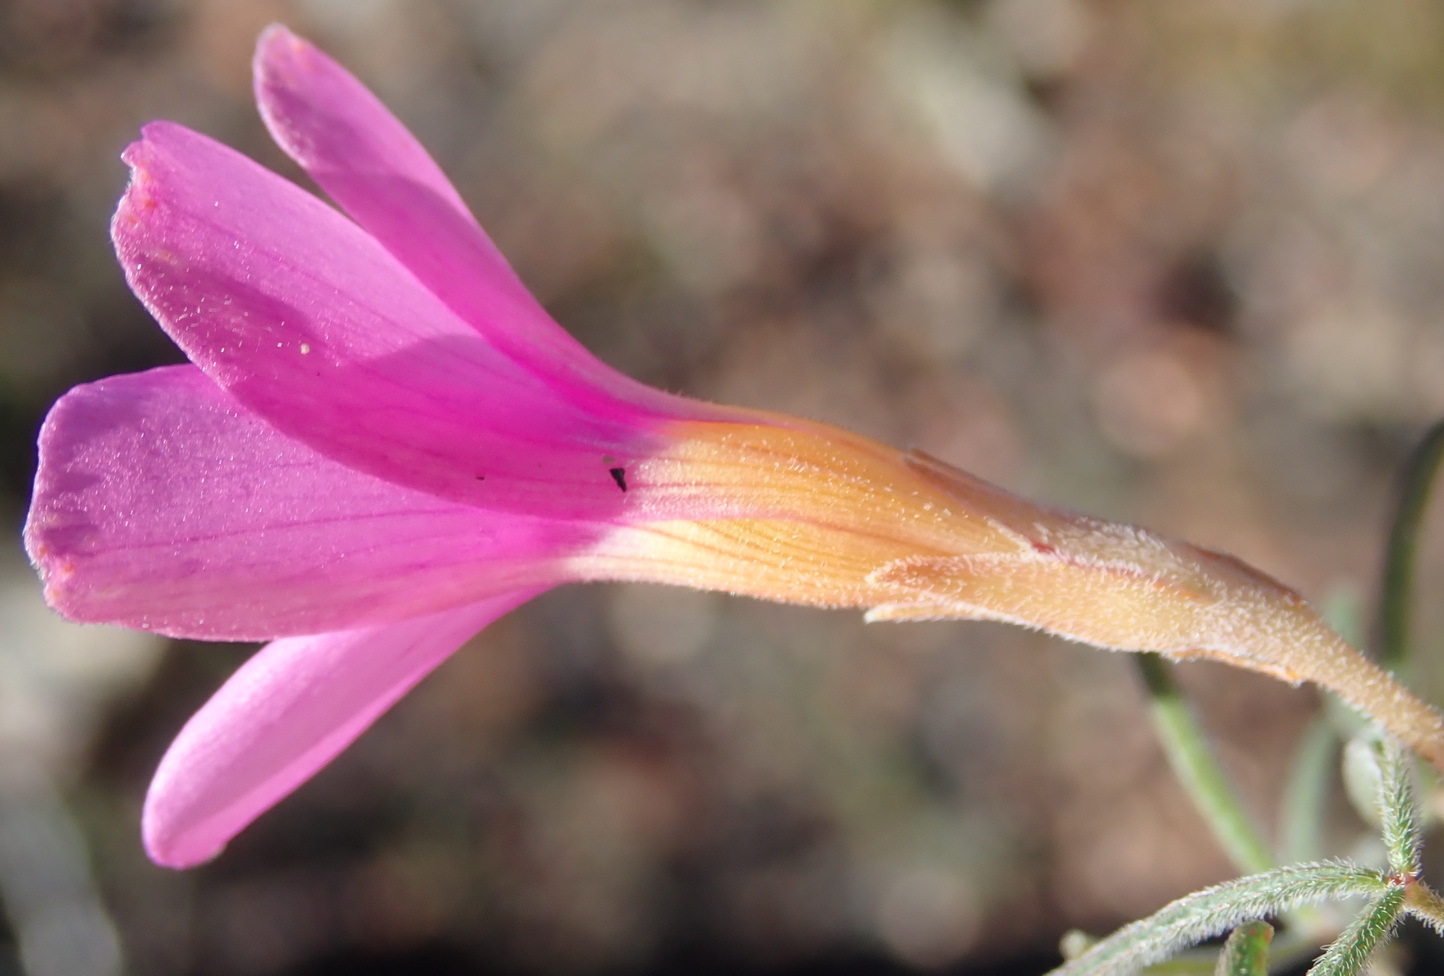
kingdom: Plantae
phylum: Tracheophyta
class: Magnoliopsida
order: Oxalidales
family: Oxalidaceae
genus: Oxalis
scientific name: Oxalis ciliaris
